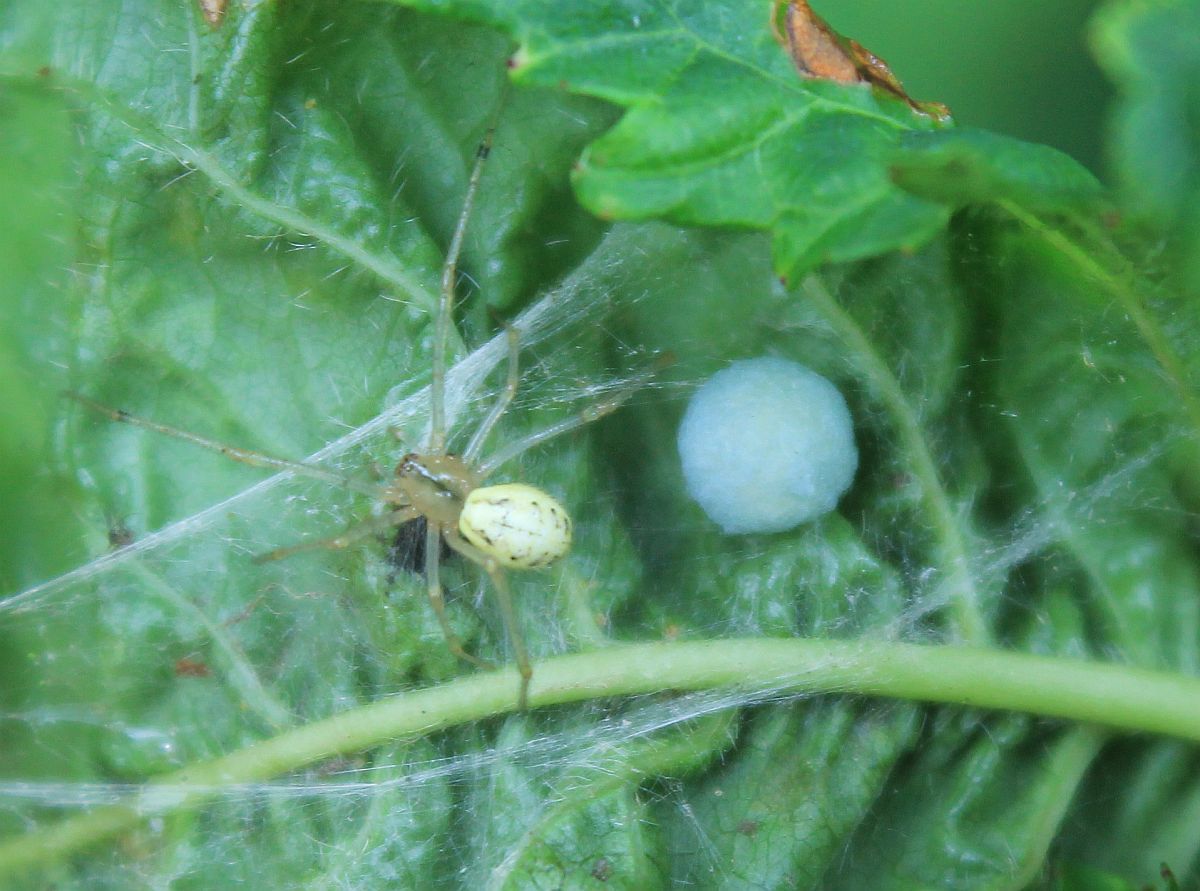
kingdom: Animalia
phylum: Arthropoda
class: Arachnida
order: Araneae
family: Theridiidae
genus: Enoplognatha
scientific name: Enoplognatha ovata
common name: Common candy-striped spider
